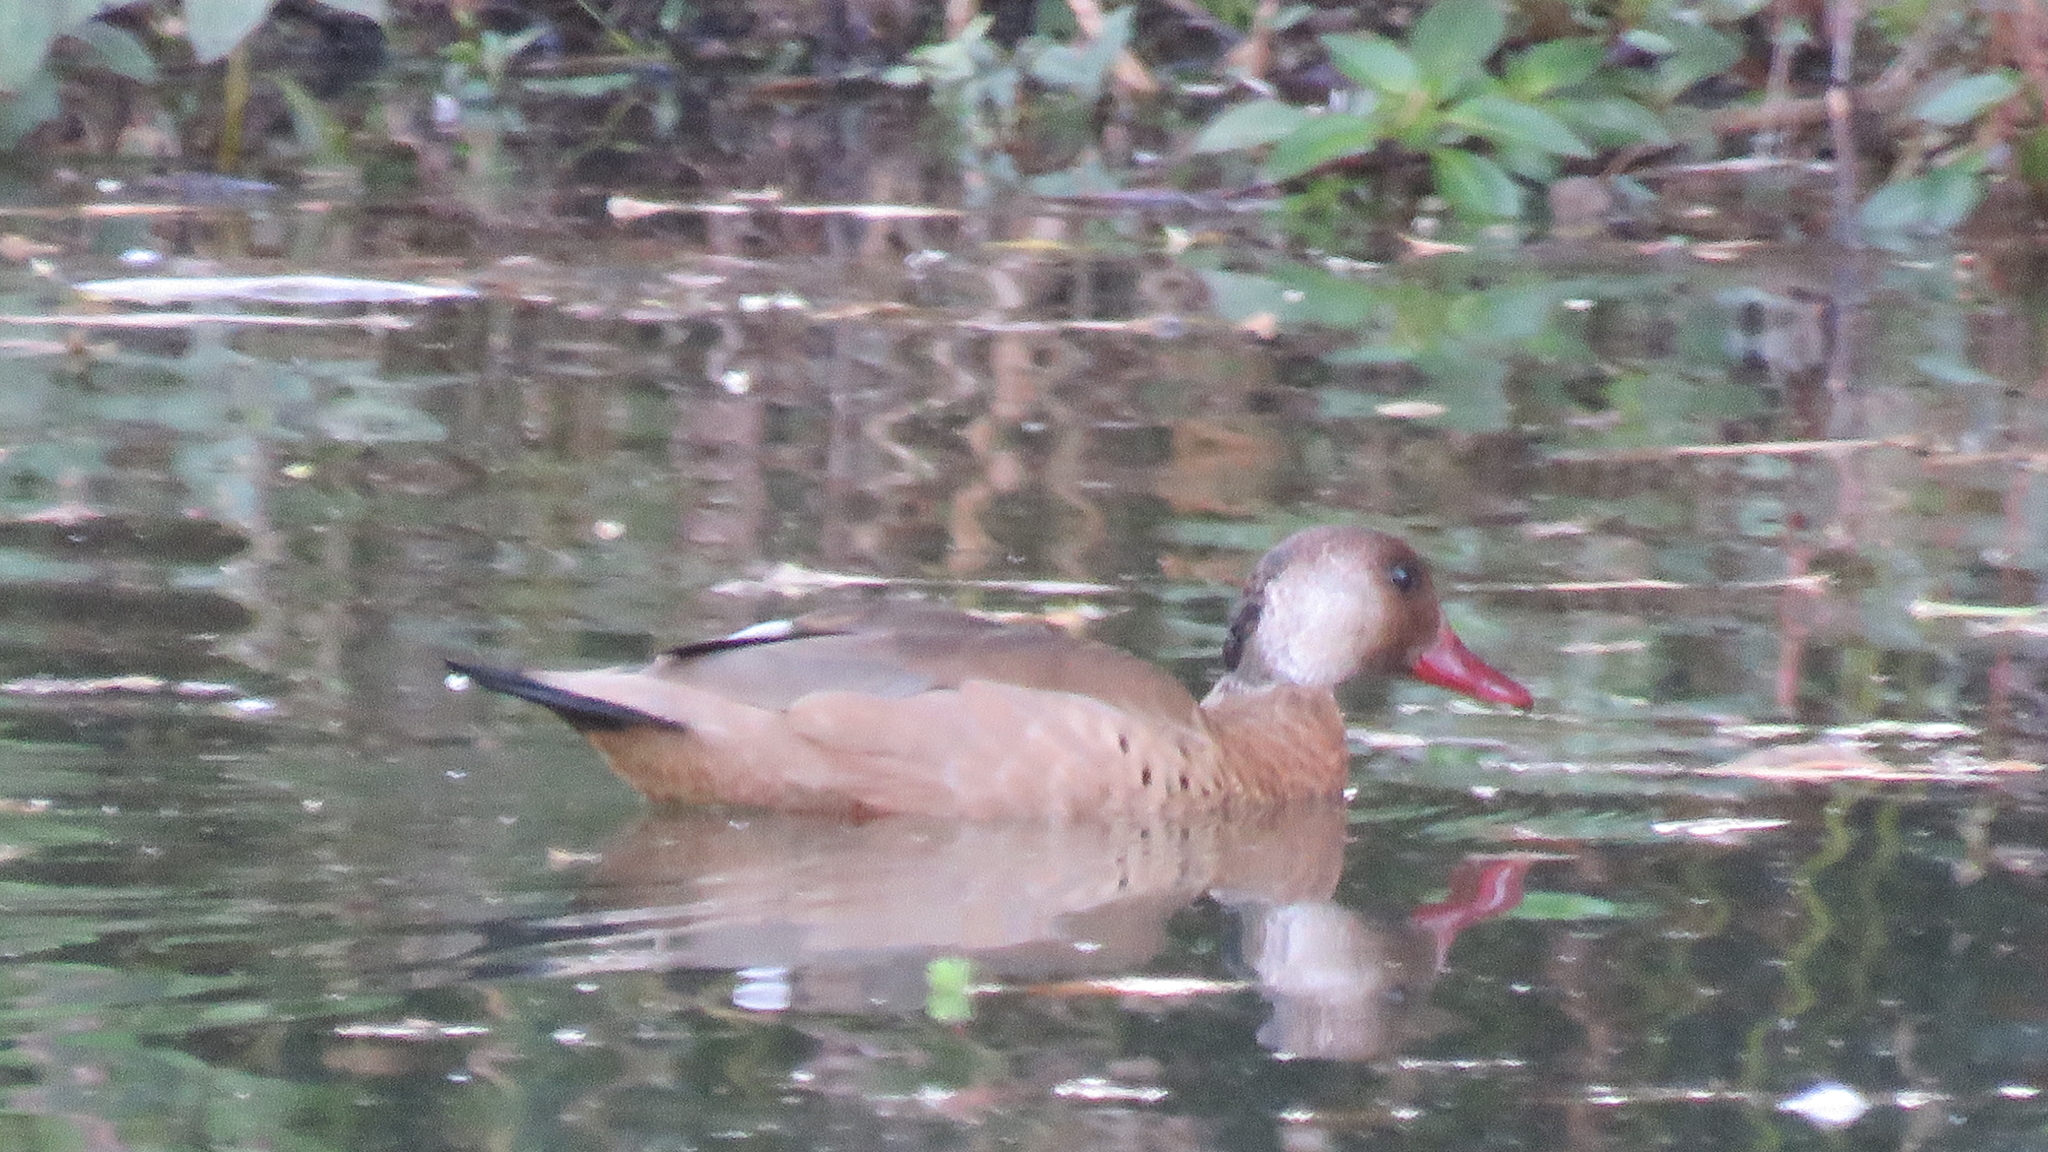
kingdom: Animalia
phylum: Chordata
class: Aves
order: Anseriformes
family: Anatidae
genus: Amazonetta
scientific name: Amazonetta brasiliensis
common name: Brazilian teal
